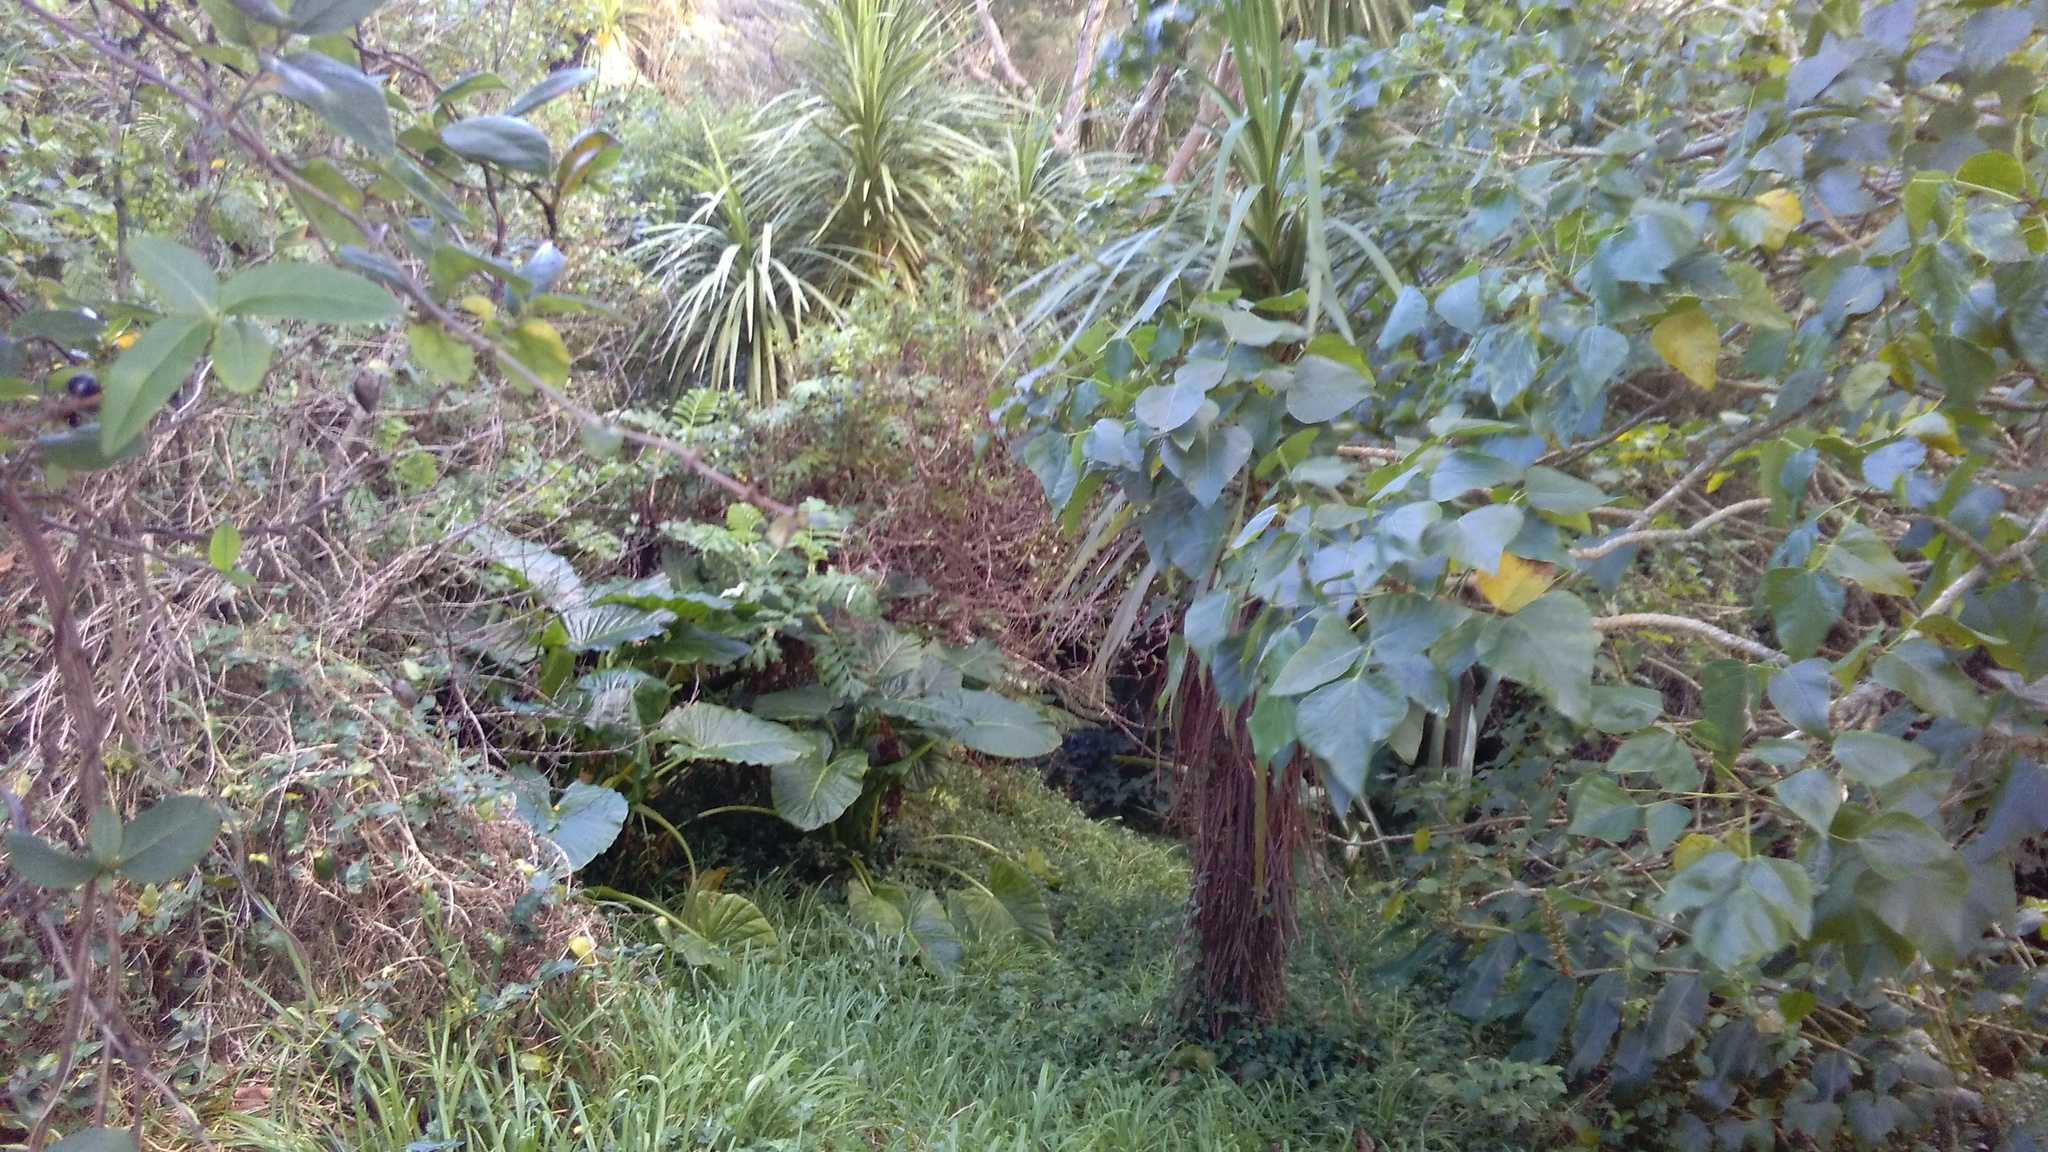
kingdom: Plantae
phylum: Tracheophyta
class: Liliopsida
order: Alismatales
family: Araceae
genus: Alocasia
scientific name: Alocasia brisbanensis
